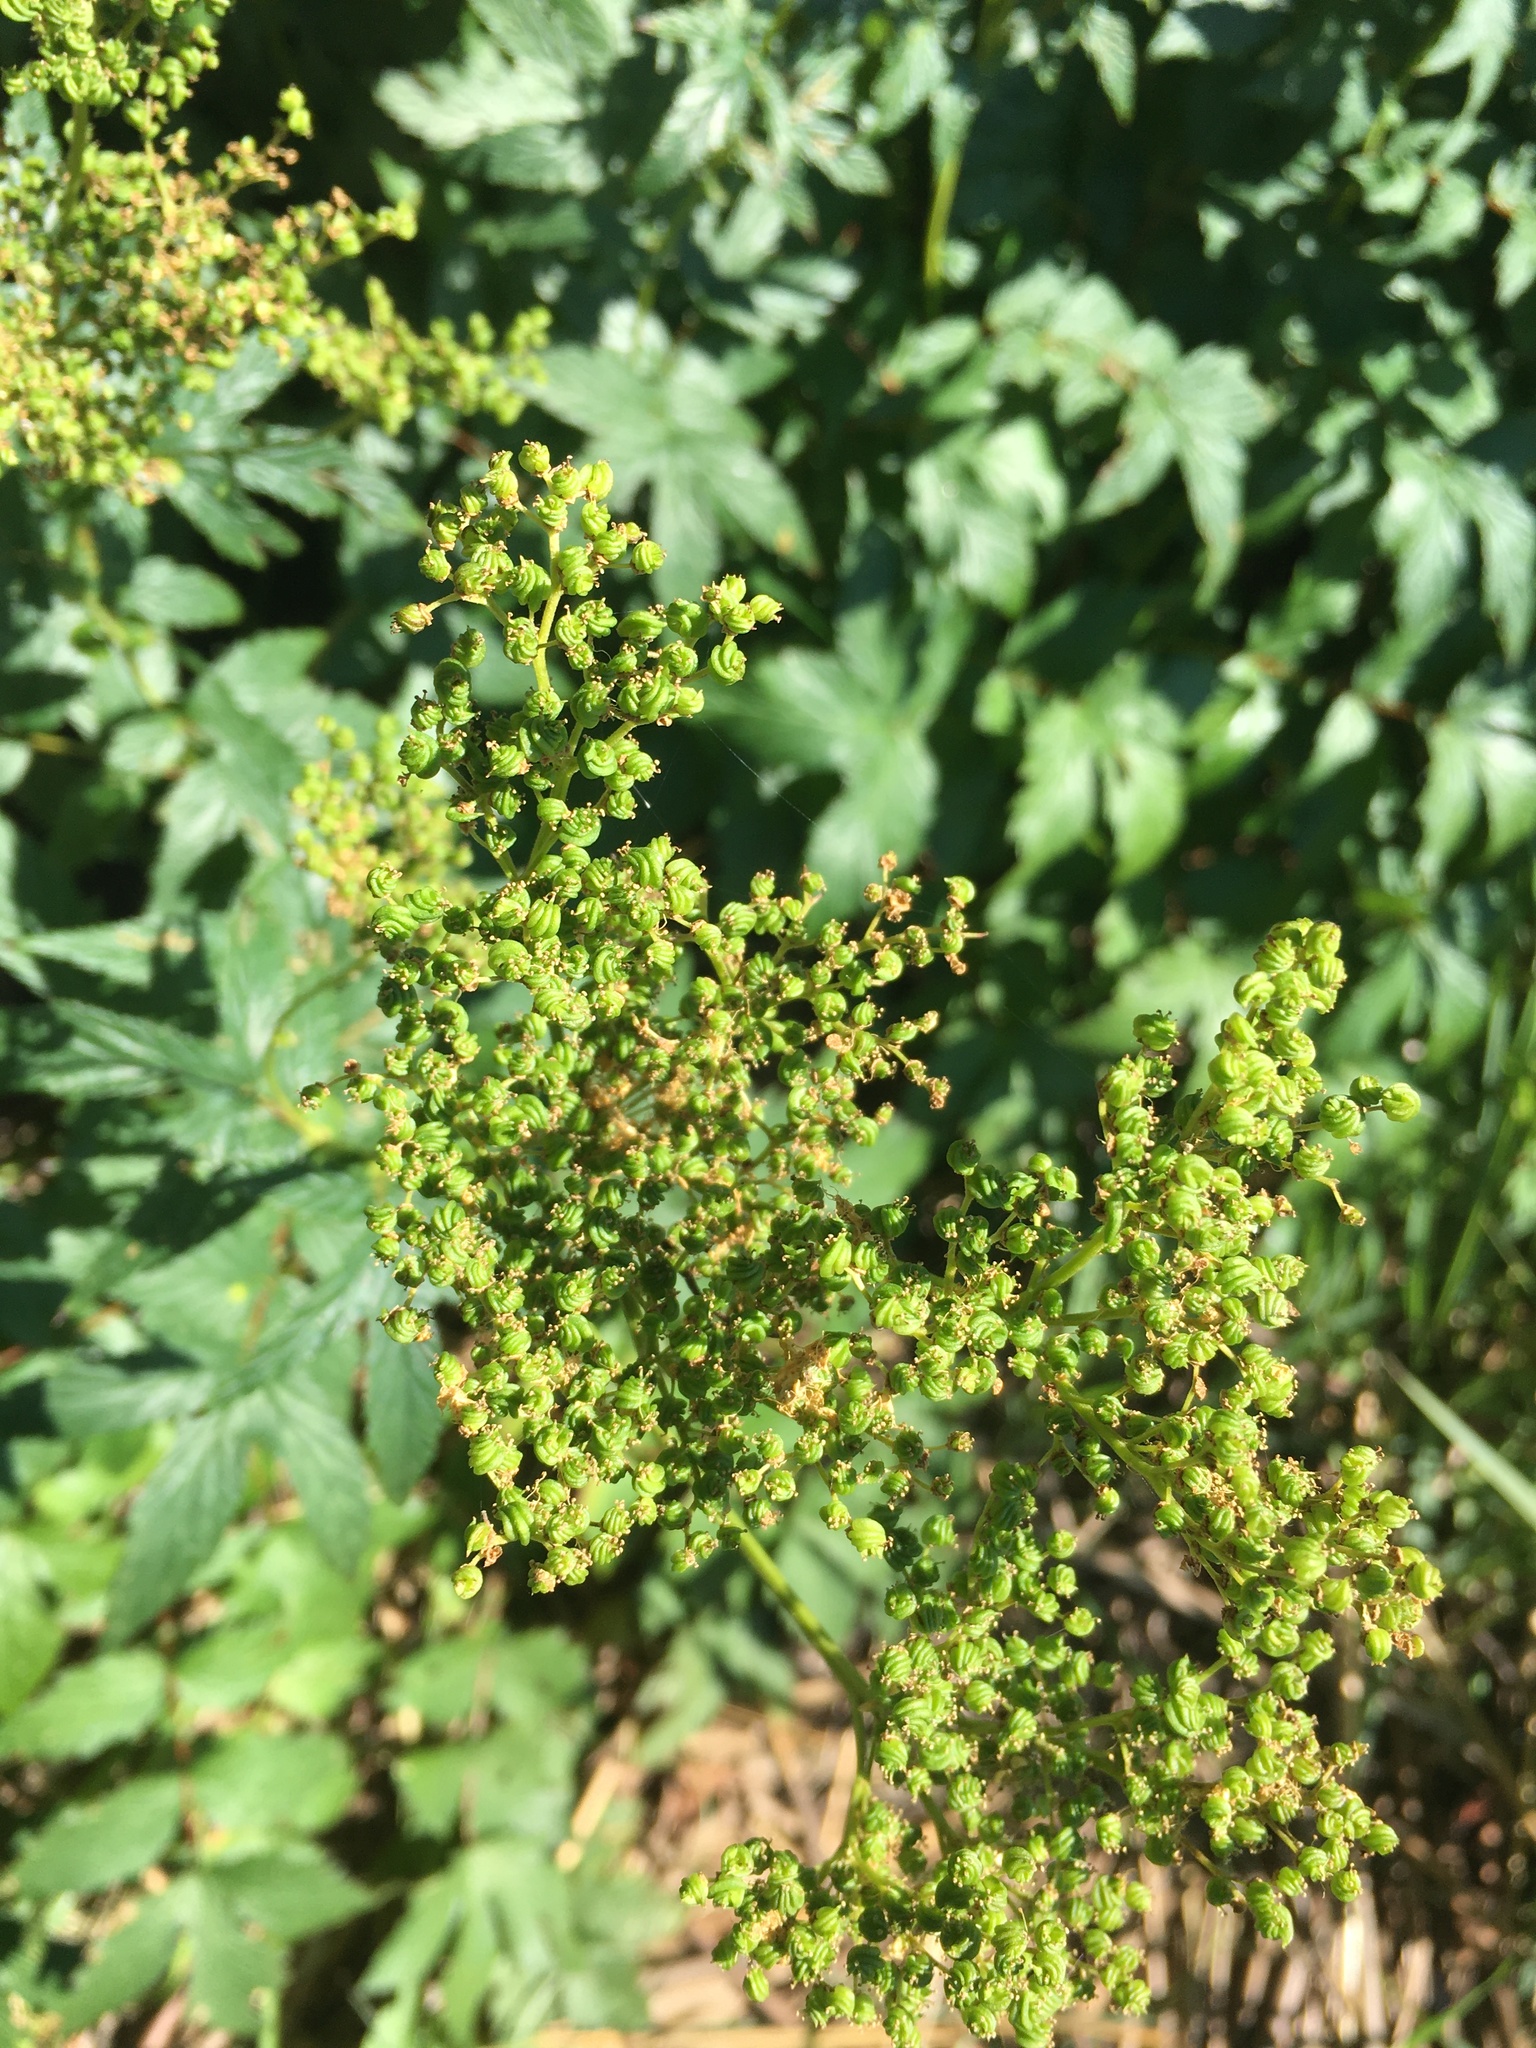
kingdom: Plantae
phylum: Tracheophyta
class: Magnoliopsida
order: Rosales
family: Rosaceae
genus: Filipendula
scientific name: Filipendula ulmaria
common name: Meadowsweet
